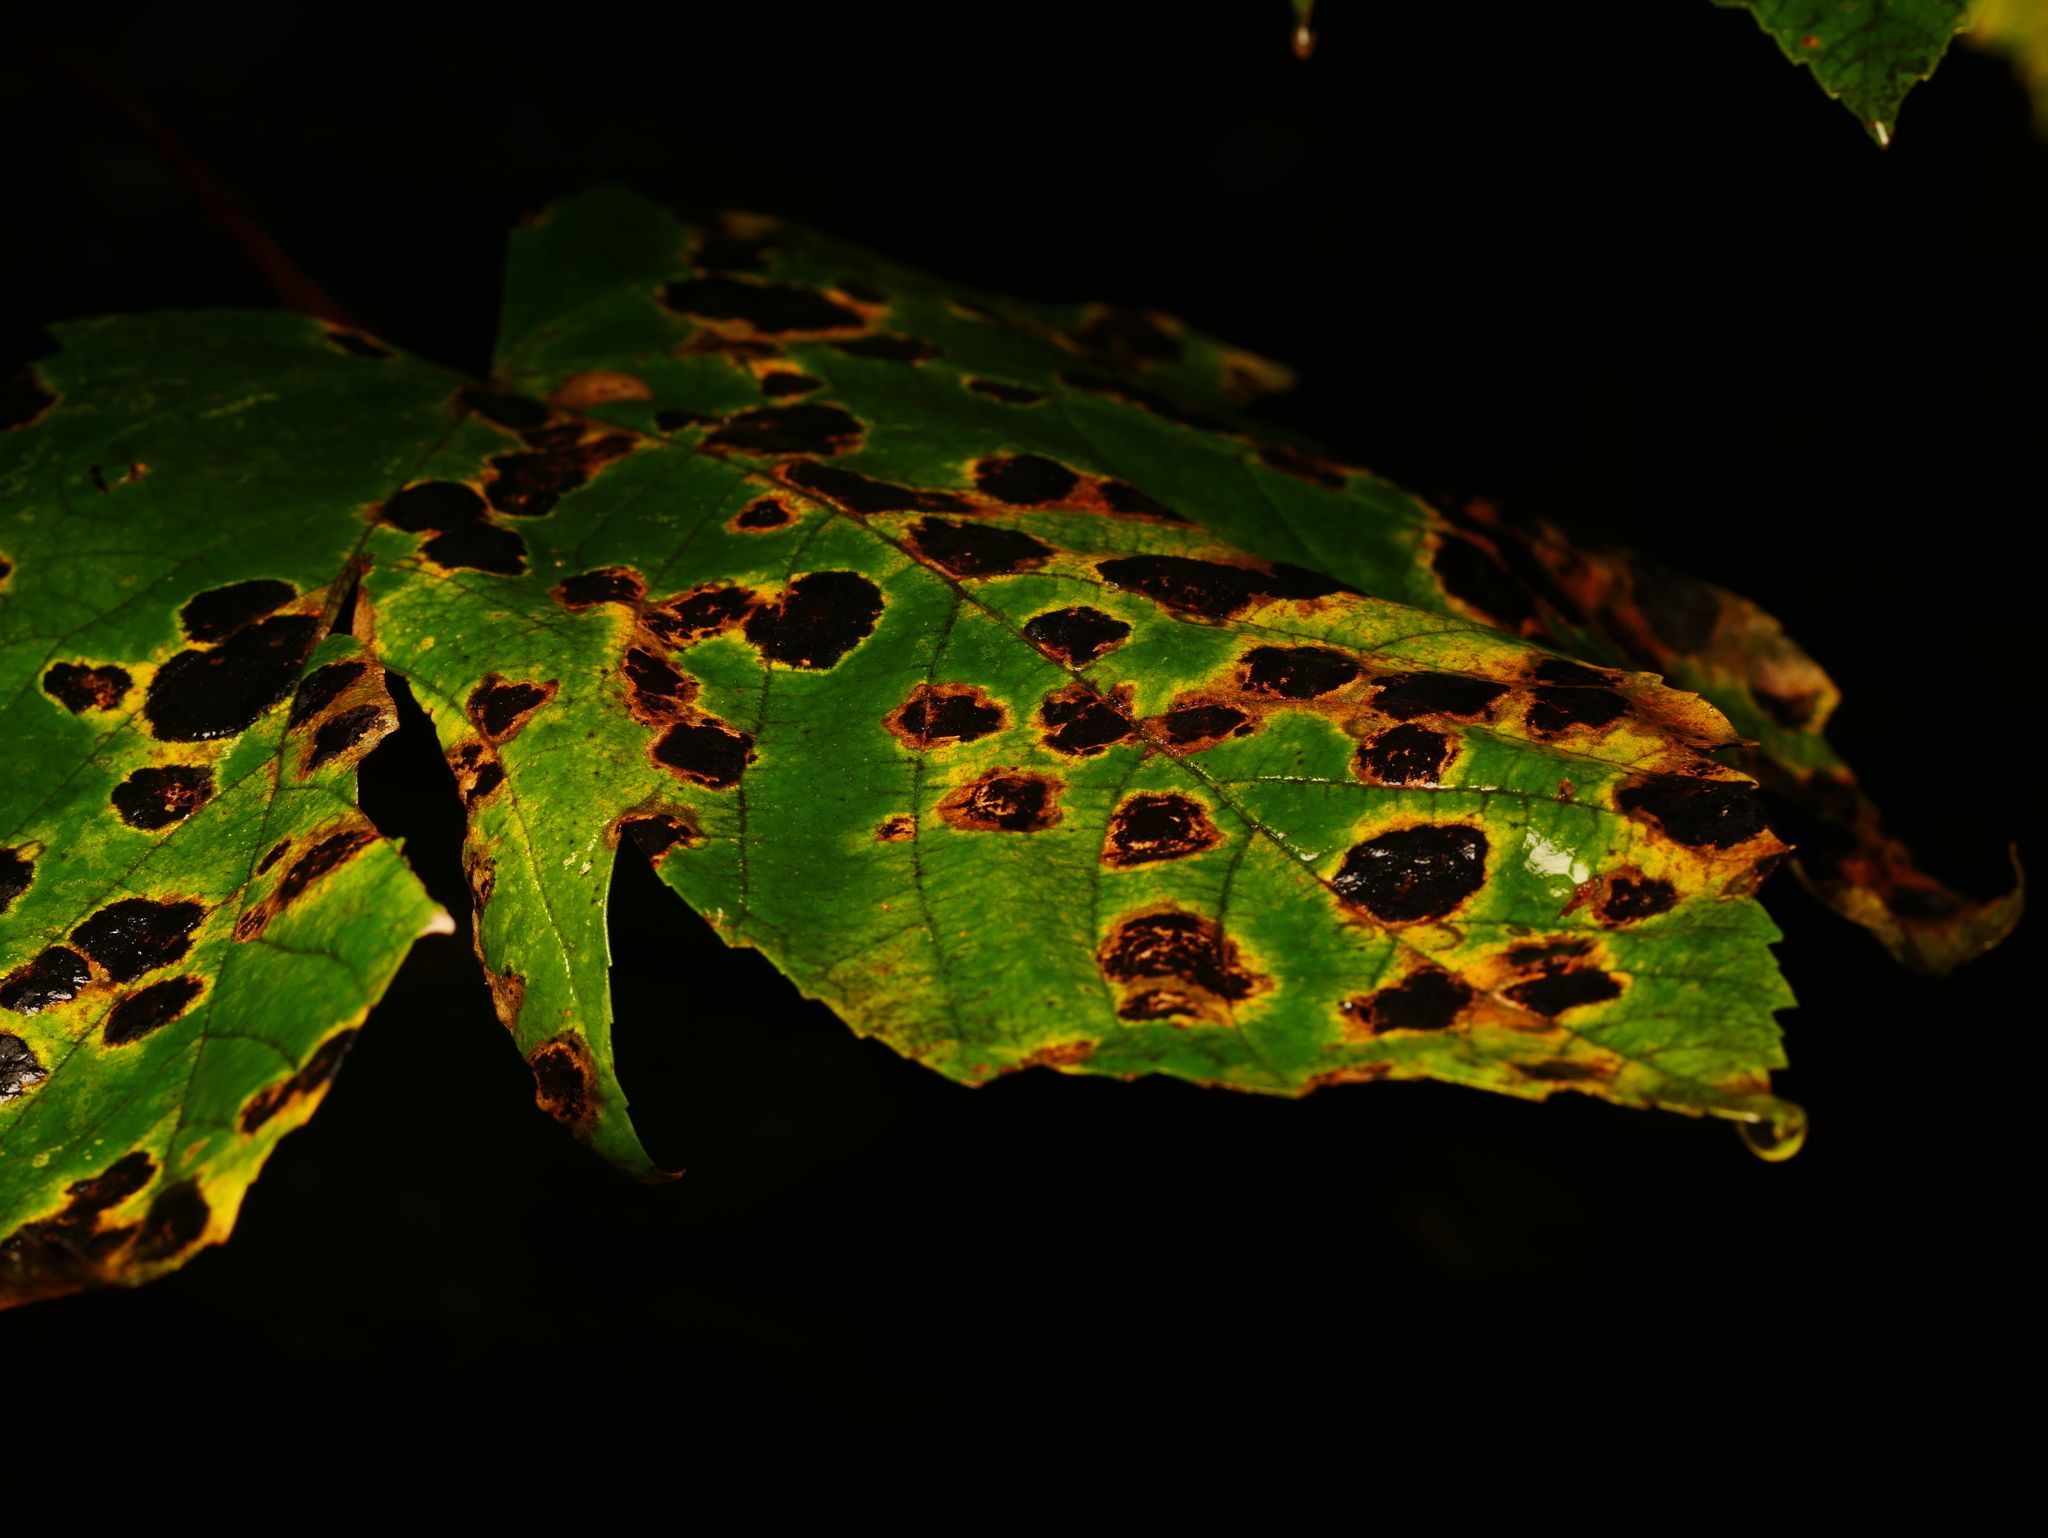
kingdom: Fungi
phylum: Ascomycota
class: Leotiomycetes
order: Rhytismatales
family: Rhytismataceae
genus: Rhytisma
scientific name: Rhytisma acerinum
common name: European tar spot
